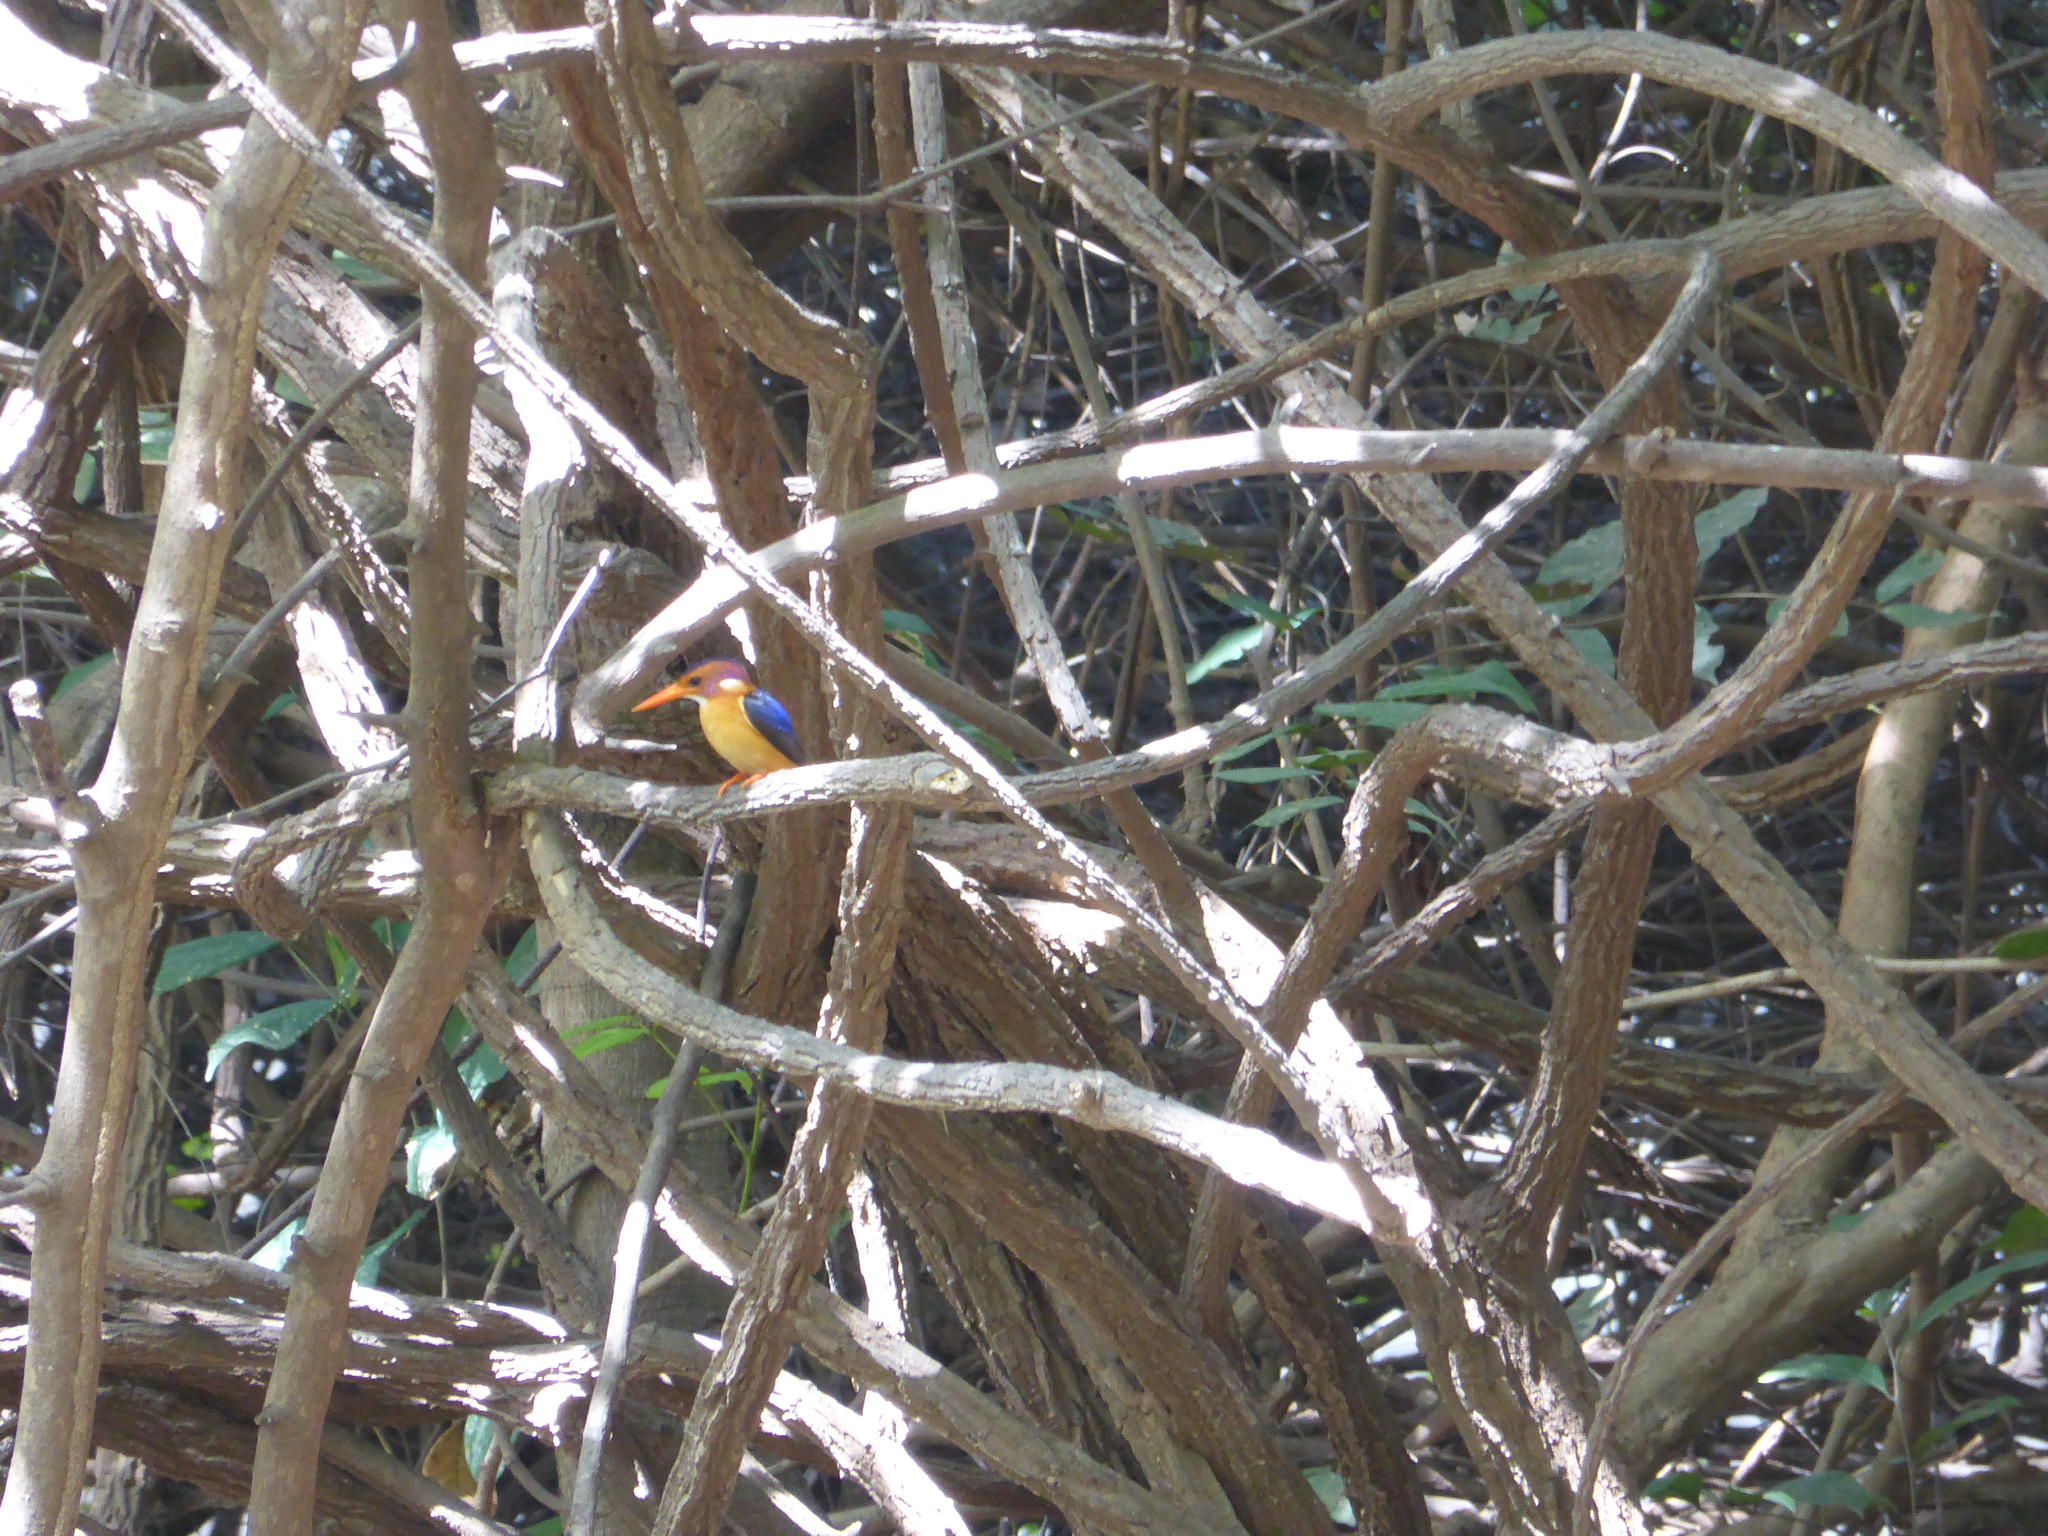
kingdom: Animalia
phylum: Chordata
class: Aves
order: Coraciiformes
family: Alcedinidae
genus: Ispidina
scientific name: Ispidina picta
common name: African pygmy-kingfisher
